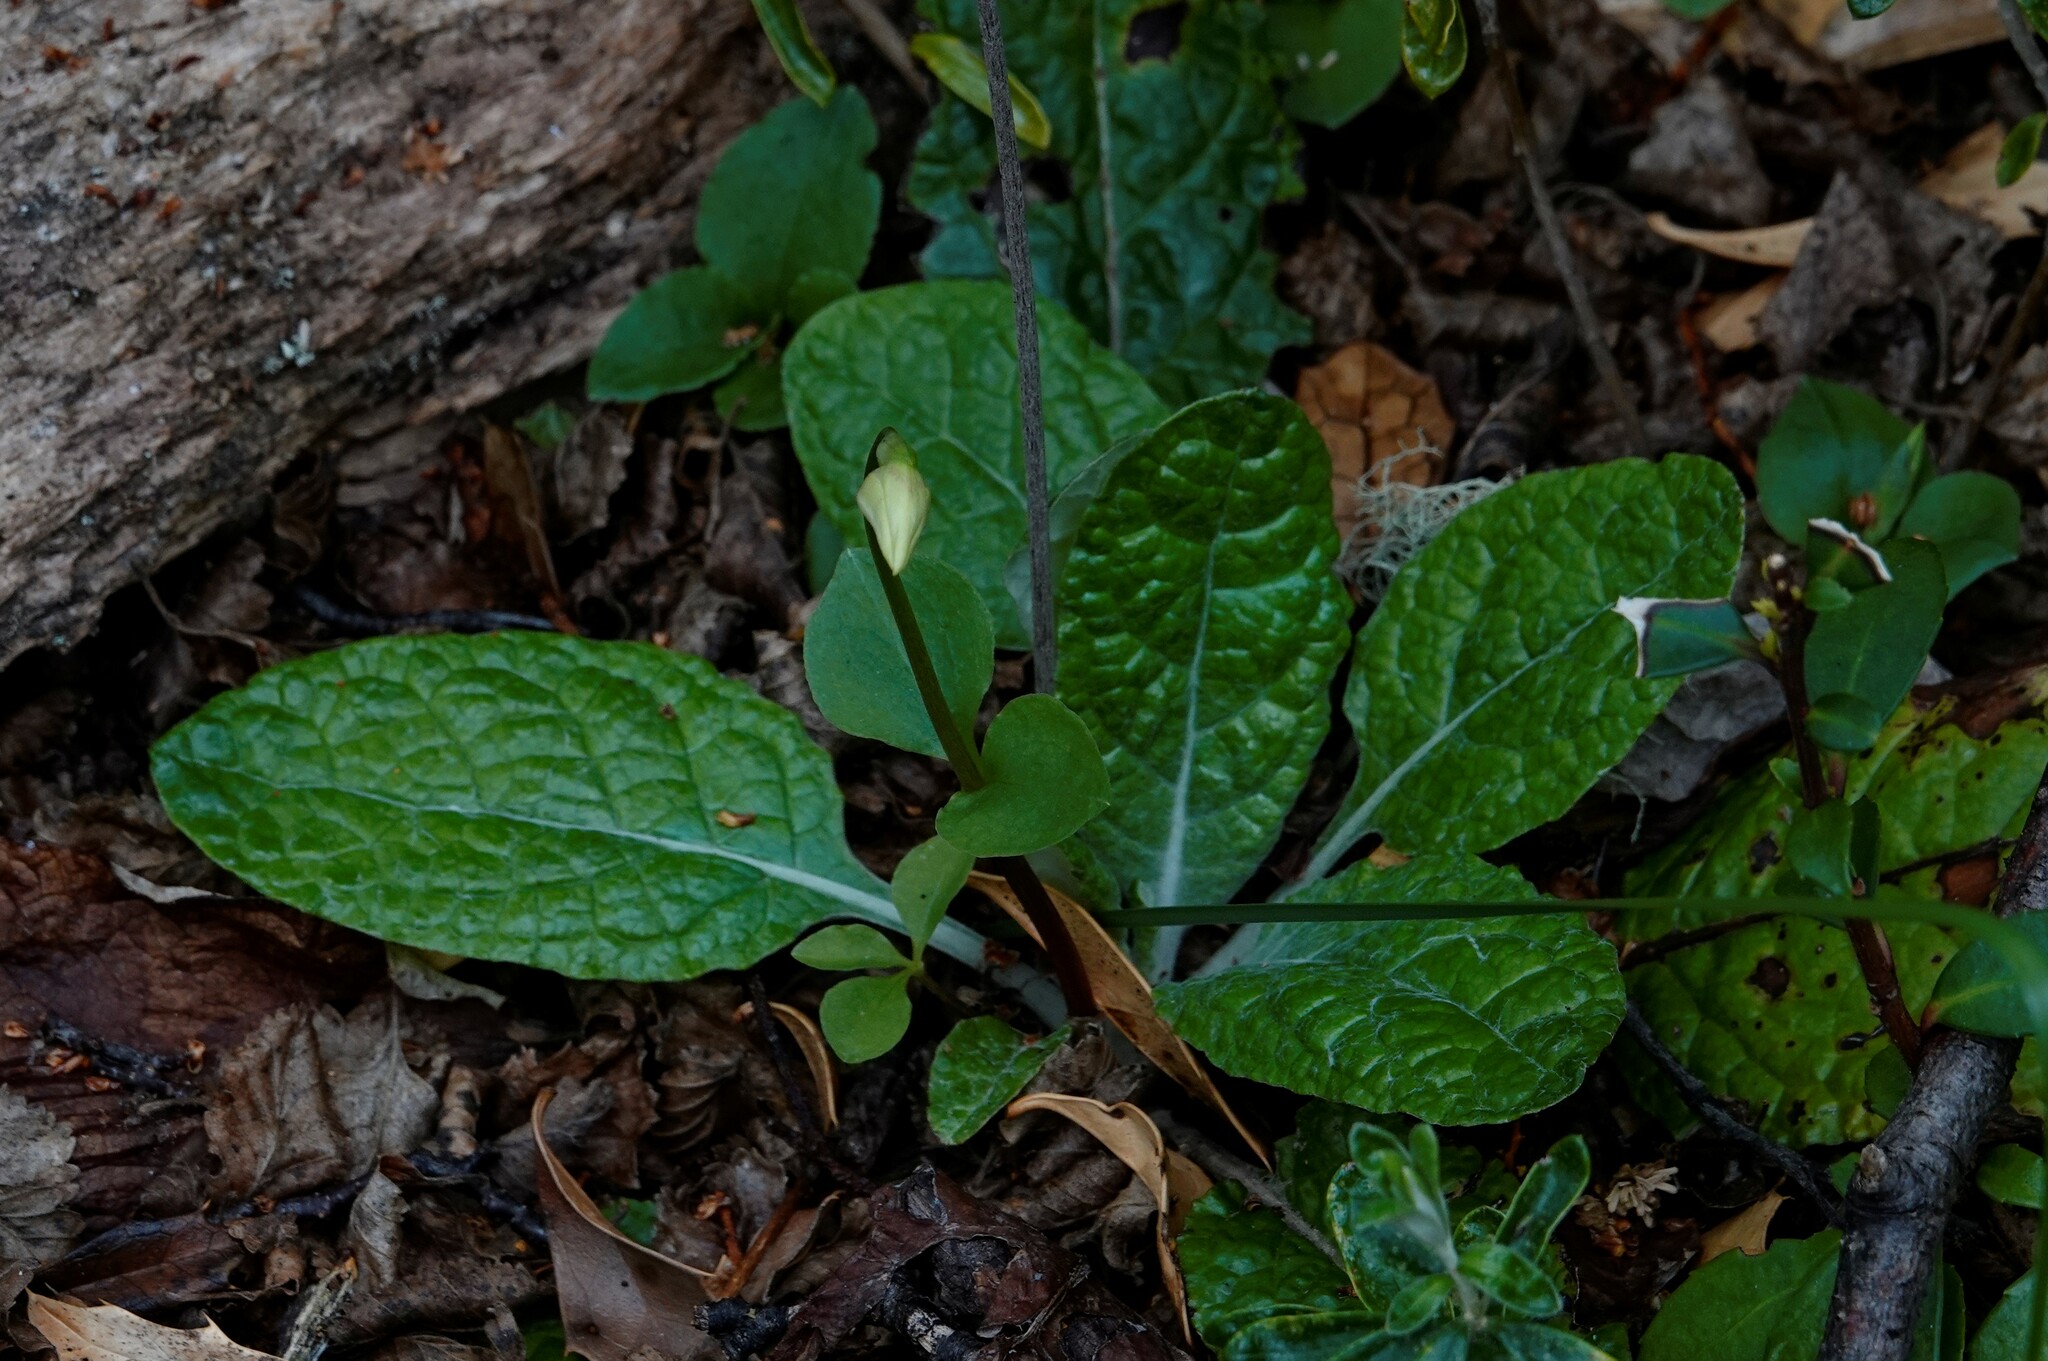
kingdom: Plantae
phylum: Tracheophyta
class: Liliopsida
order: Asparagales
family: Orchidaceae
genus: Codonorchis
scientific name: Codonorchis lessonii
